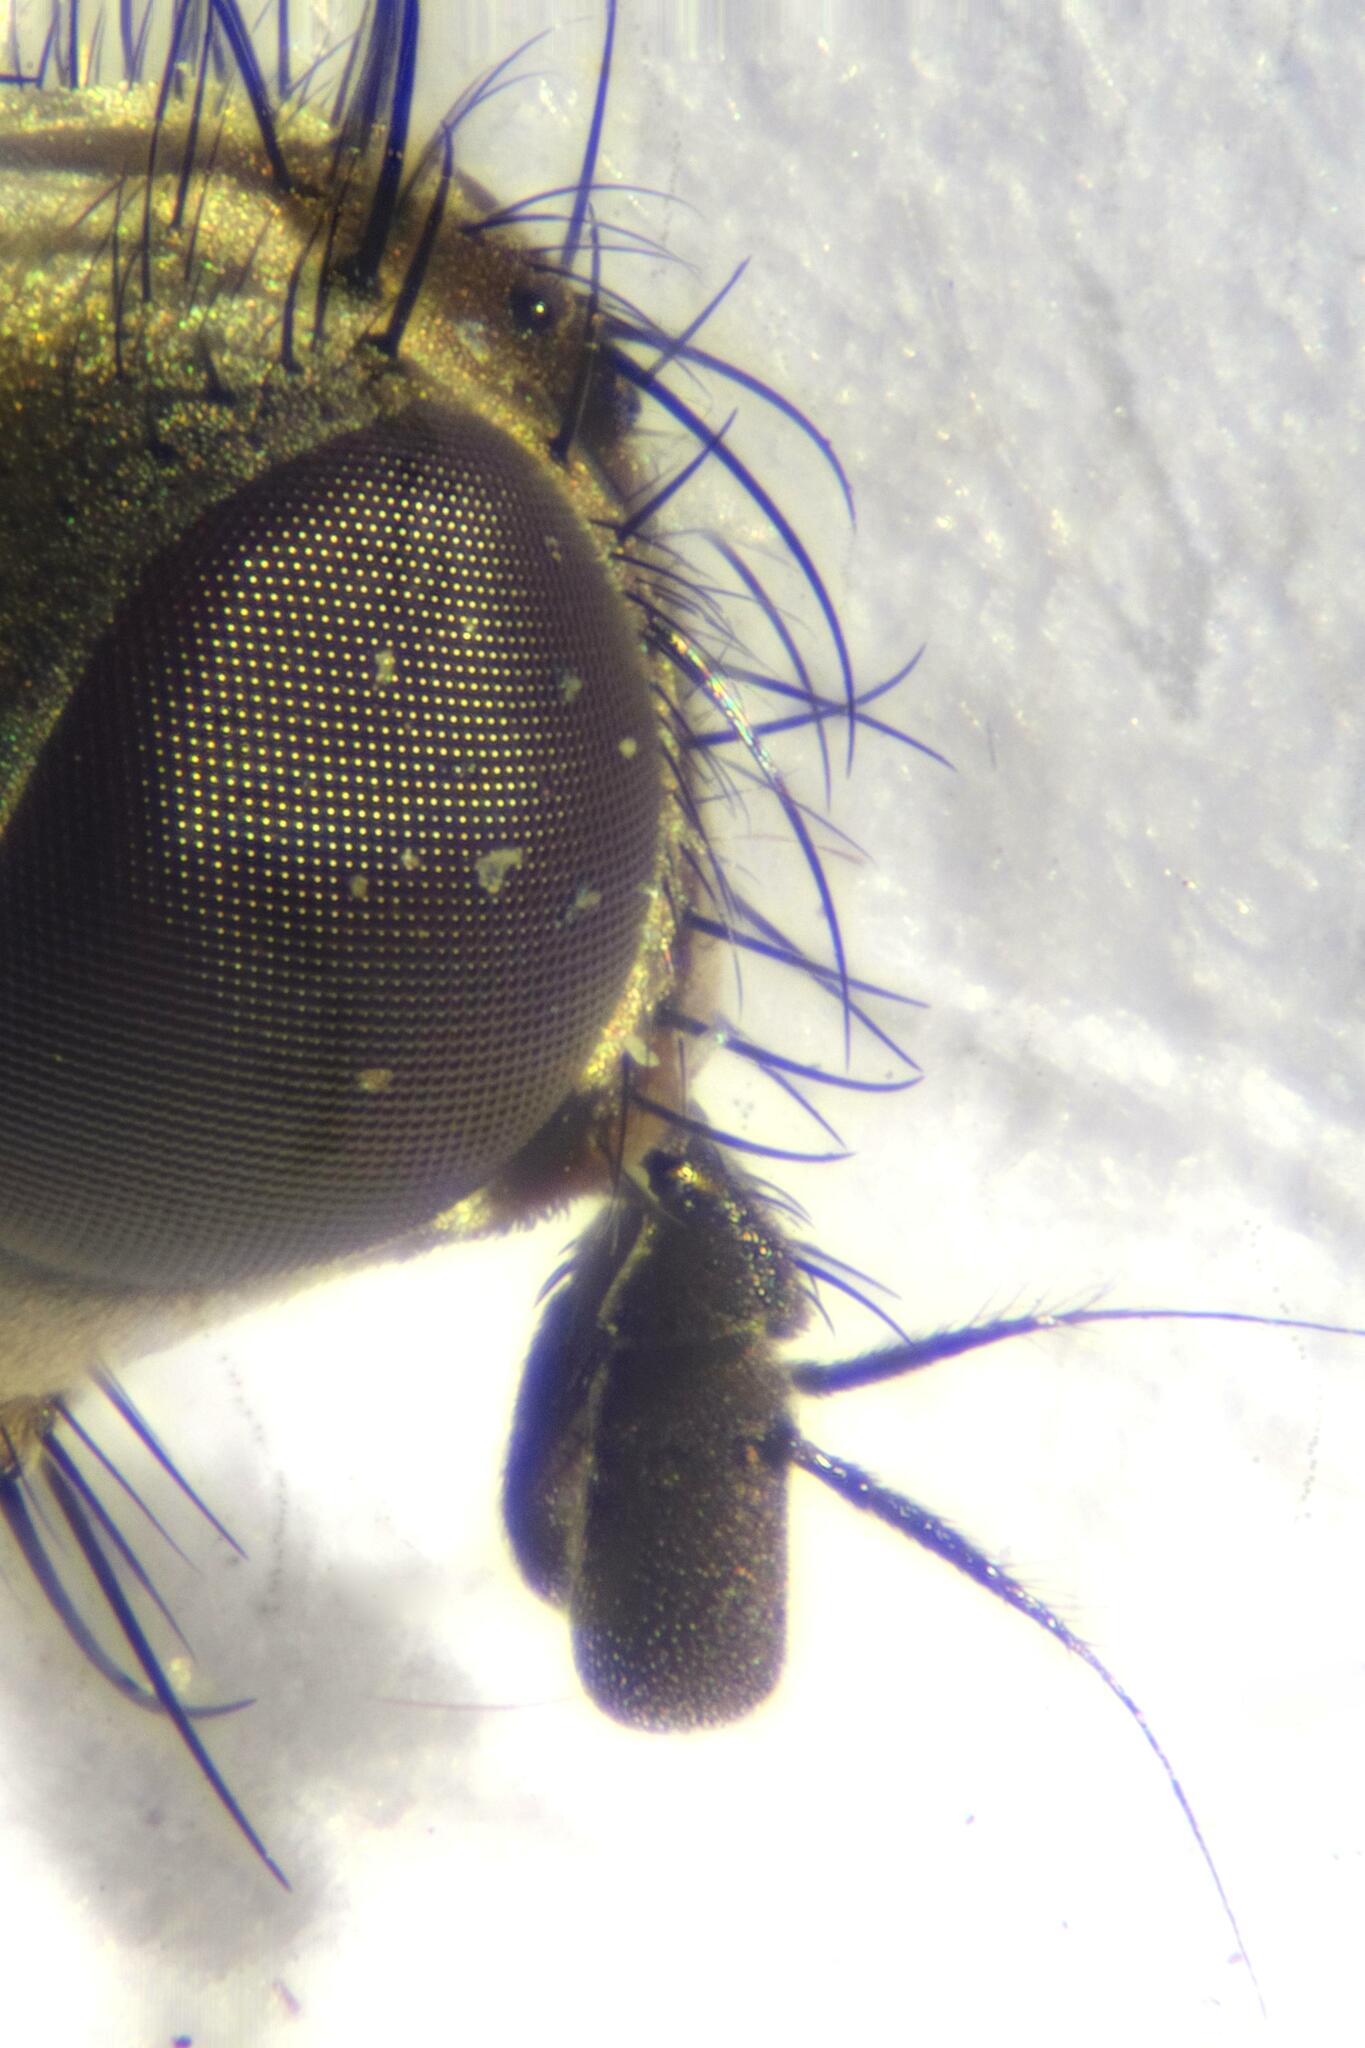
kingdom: Animalia
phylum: Arthropoda
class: Insecta
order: Diptera
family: Scathophagidae
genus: Scathophaga
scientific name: Scathophaga stercoraria
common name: Yellow dung fly
